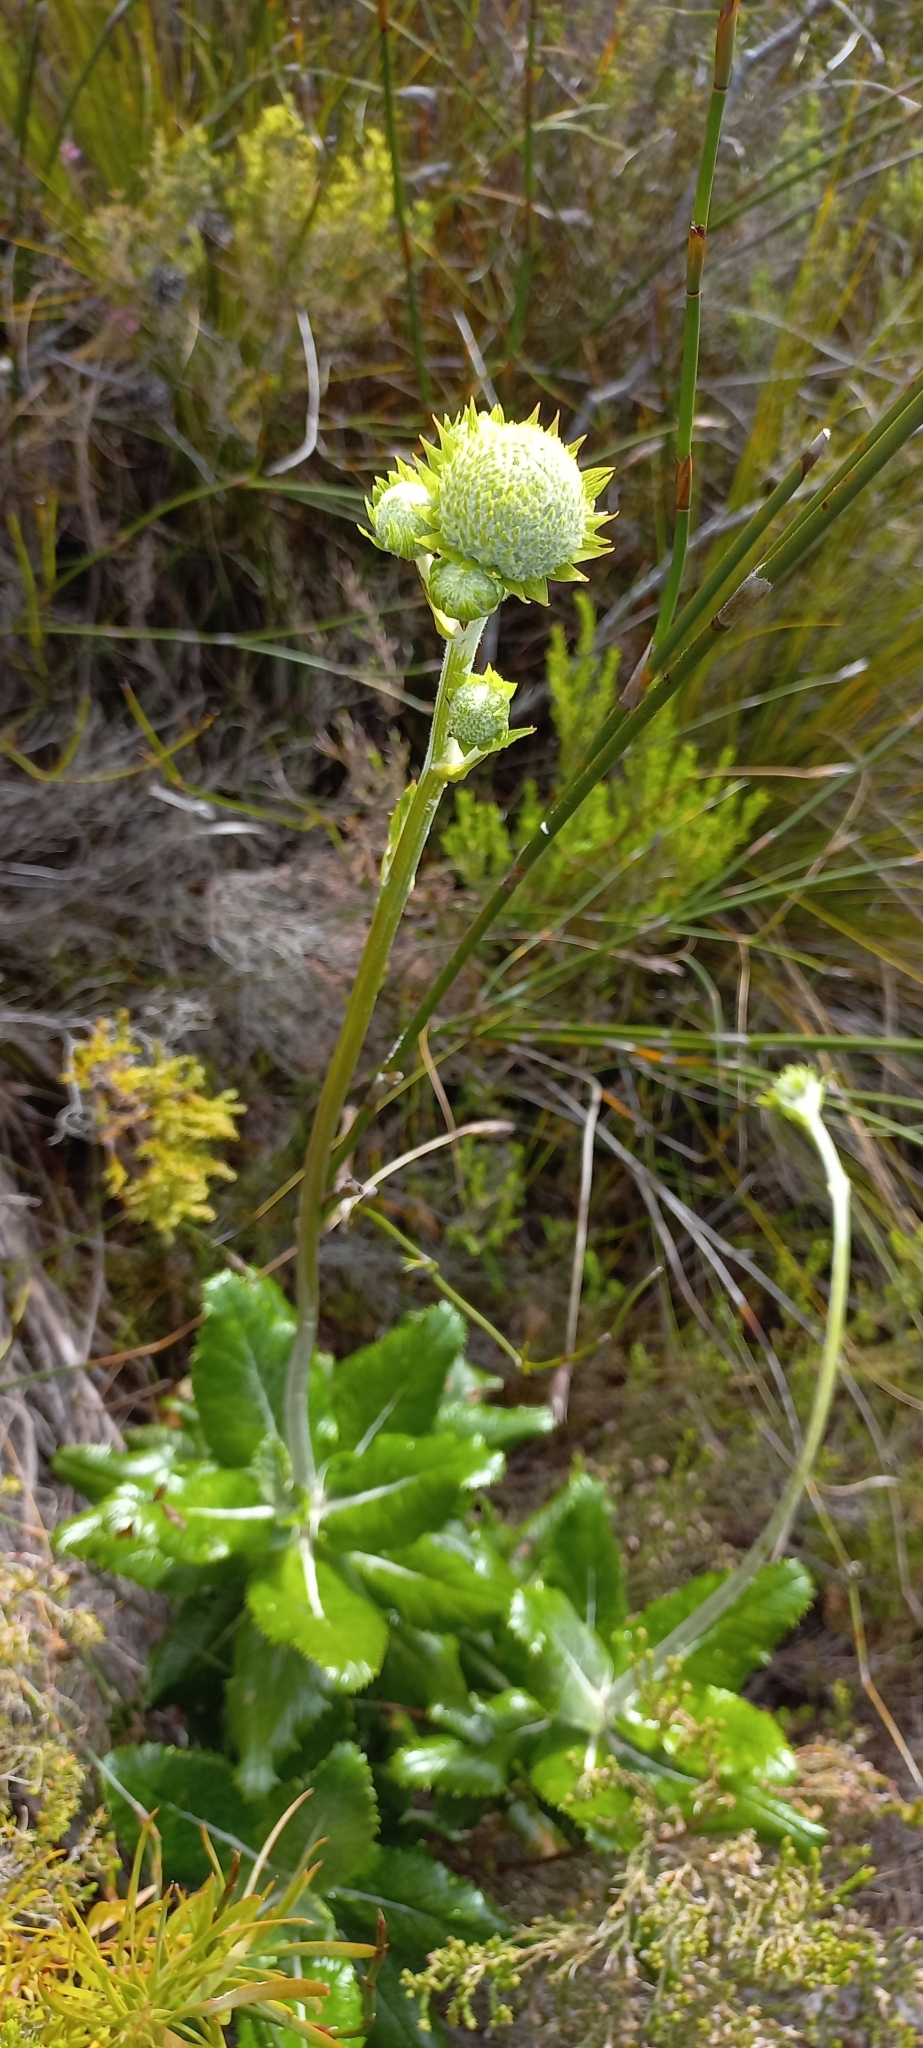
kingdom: Plantae
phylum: Tracheophyta
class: Magnoliopsida
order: Apiales
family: Apiaceae
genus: Hermas
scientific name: Hermas villosa
